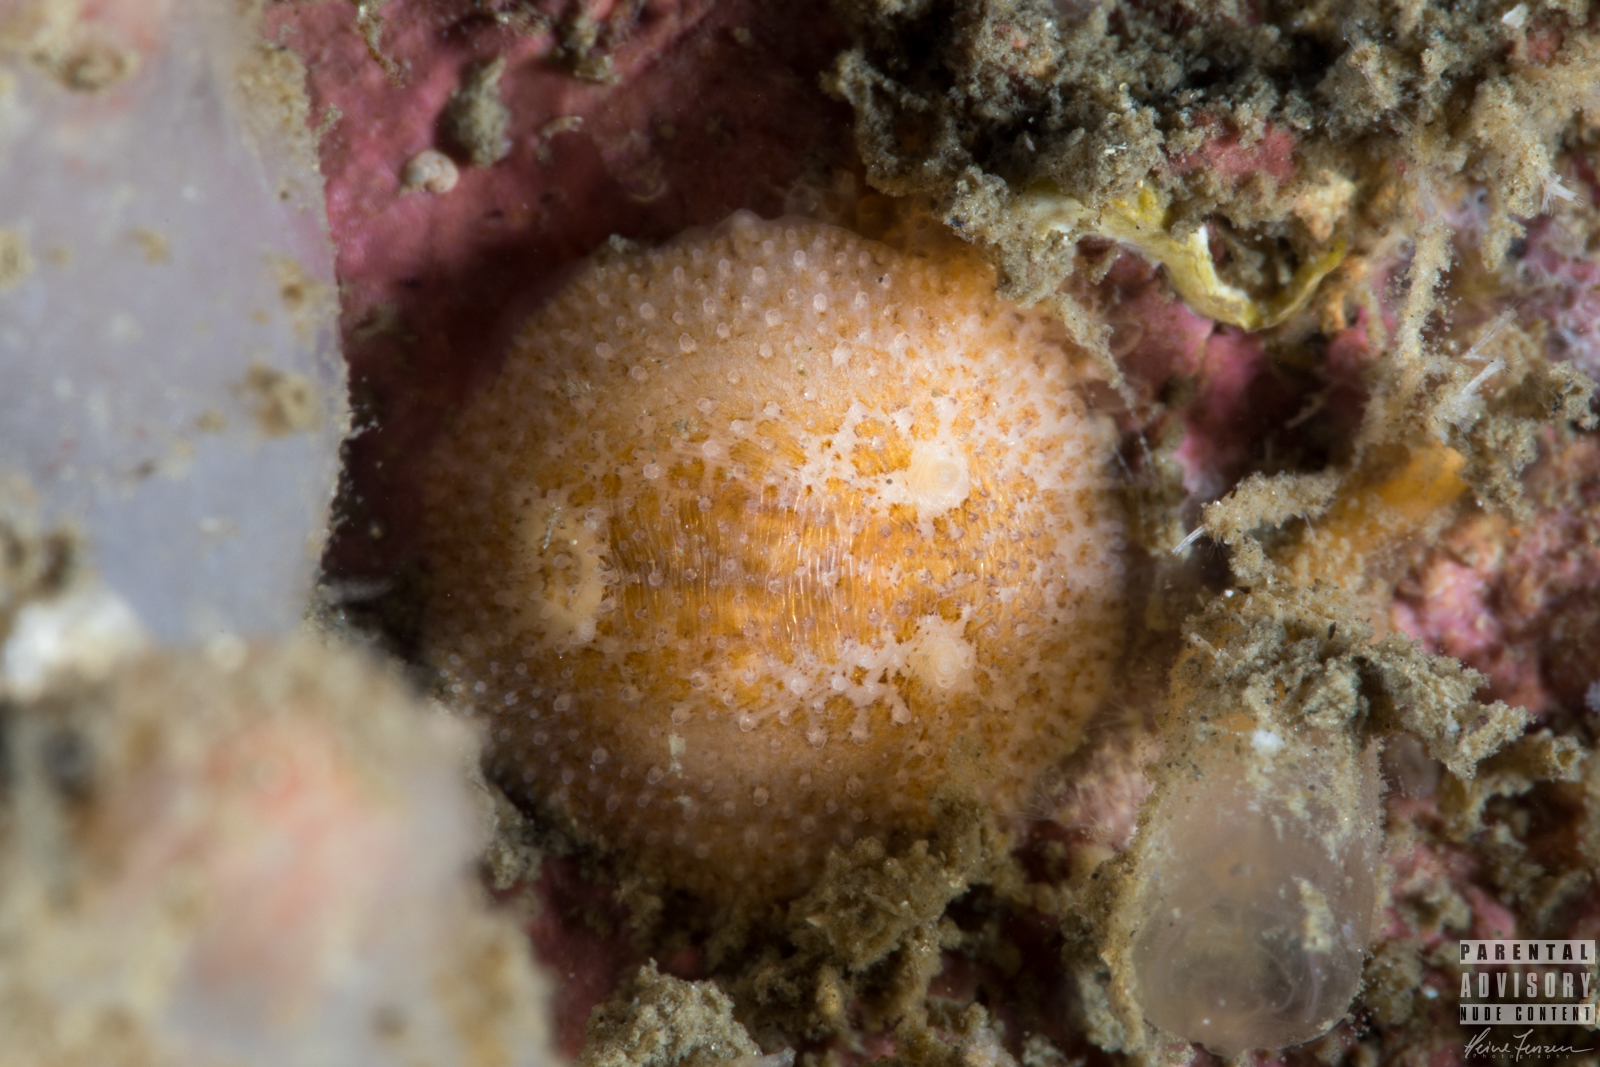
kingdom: Animalia
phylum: Mollusca
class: Gastropoda
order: Nudibranchia
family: Onchidorididae
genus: Atalodoris
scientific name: Atalodoris sparsa
